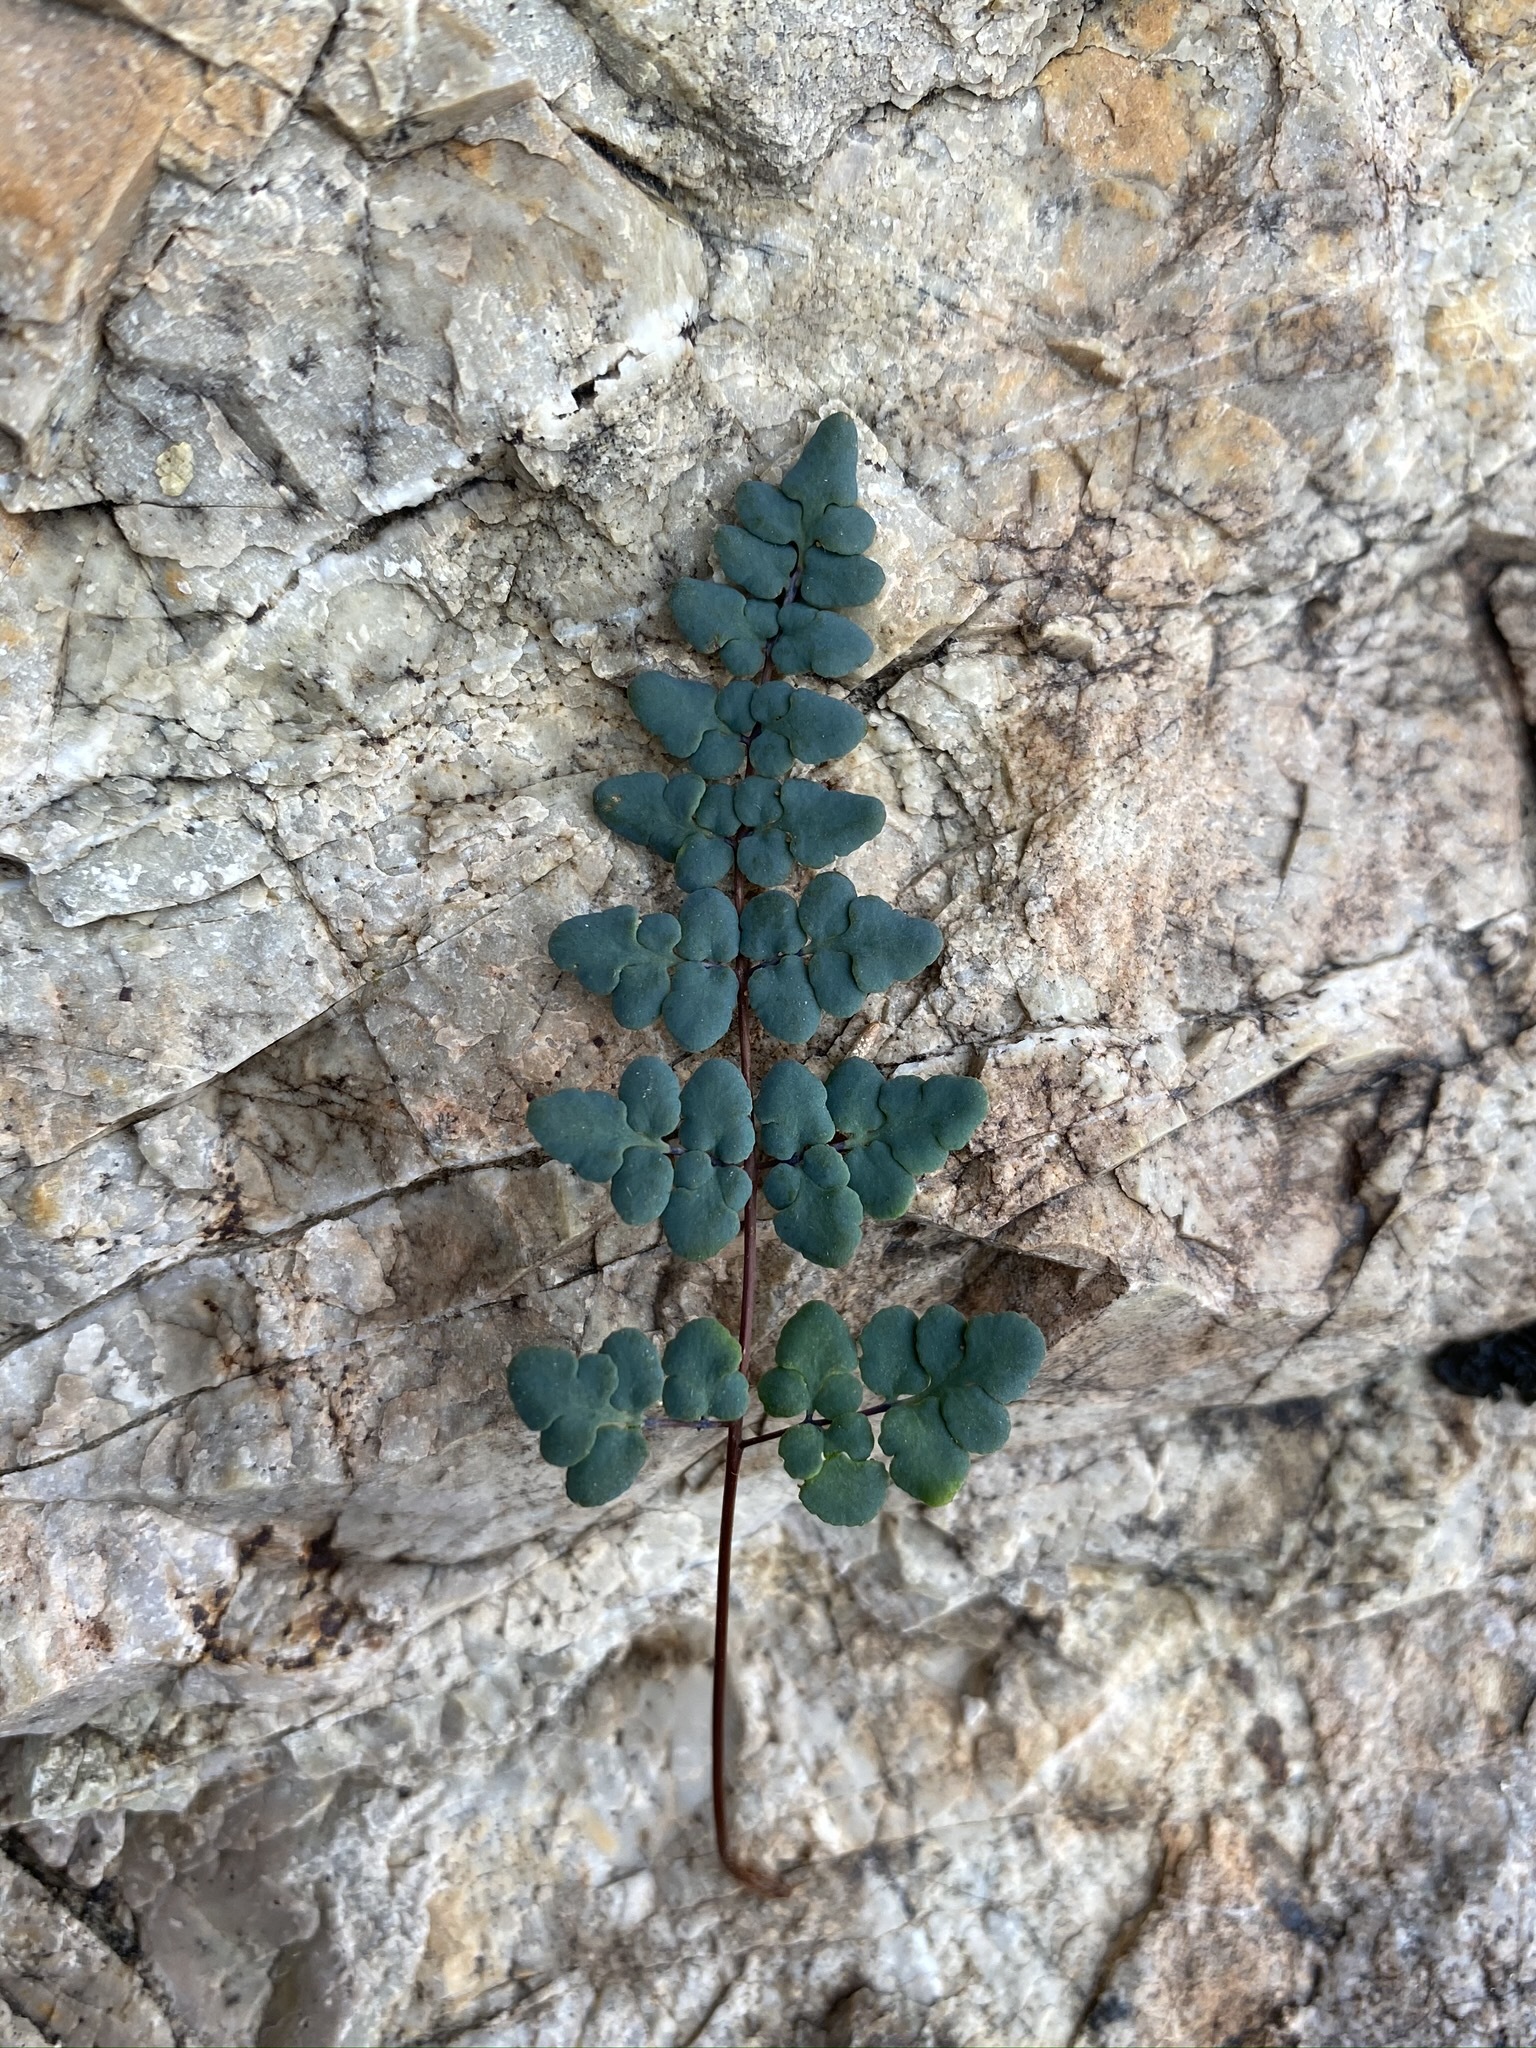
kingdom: Plantae
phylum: Tracheophyta
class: Polypodiopsida
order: Polypodiales
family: Pteridaceae
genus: Argyrochosma
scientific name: Argyrochosma jonesii
